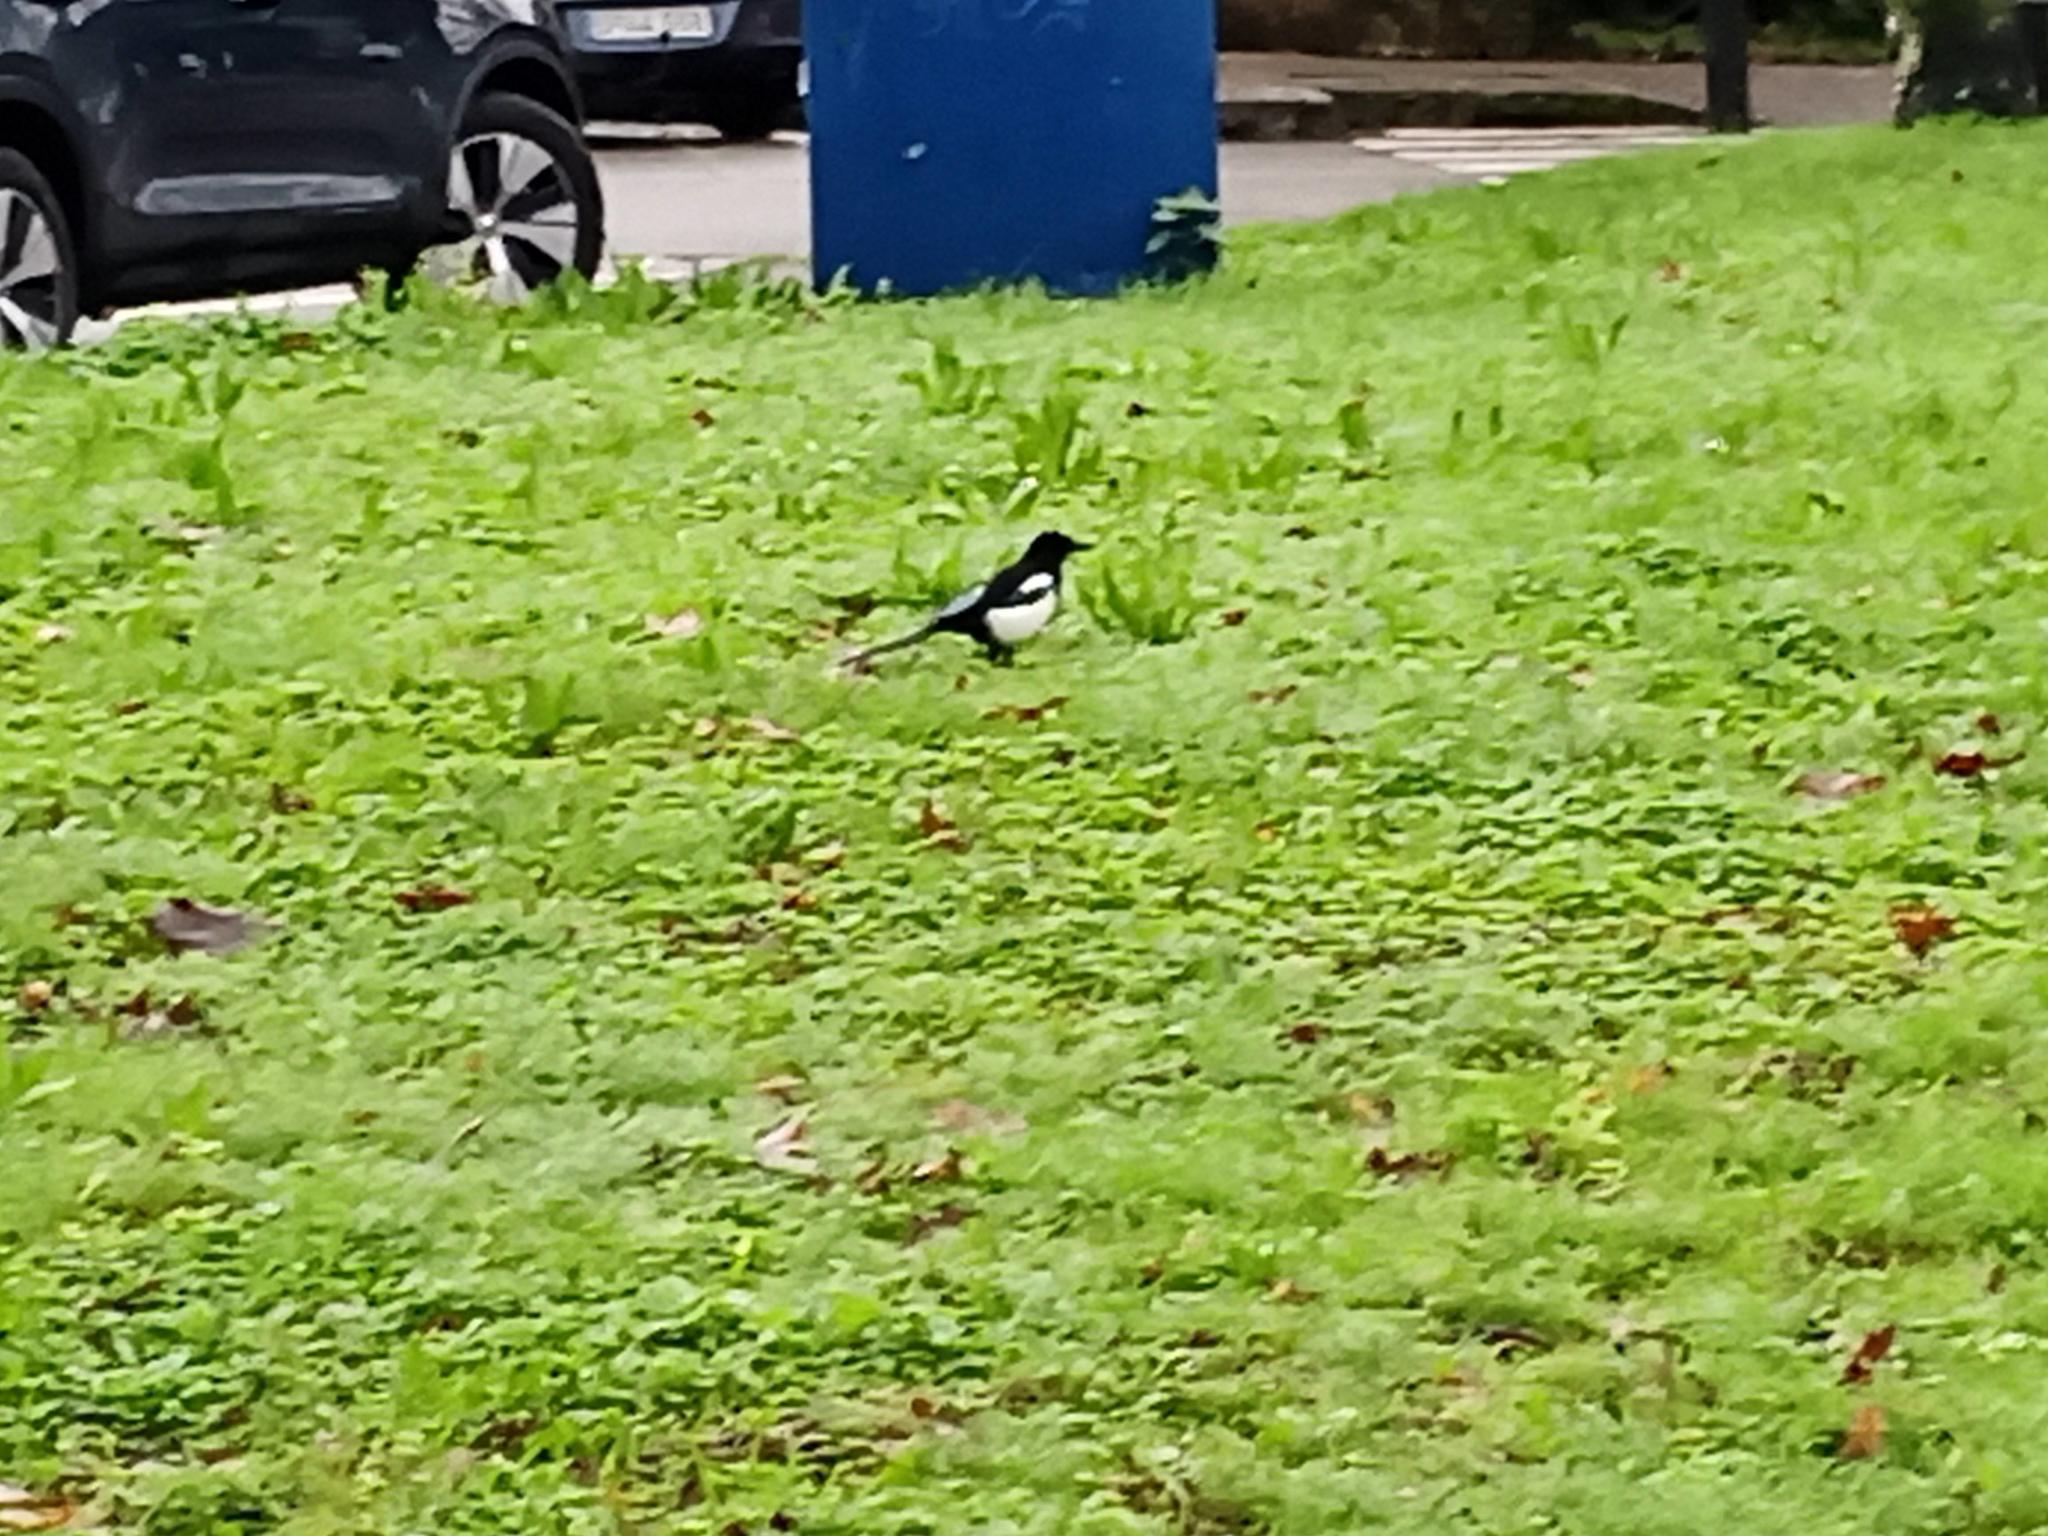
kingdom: Animalia
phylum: Chordata
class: Aves
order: Passeriformes
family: Corvidae
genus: Pica
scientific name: Pica pica
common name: Eurasian magpie
